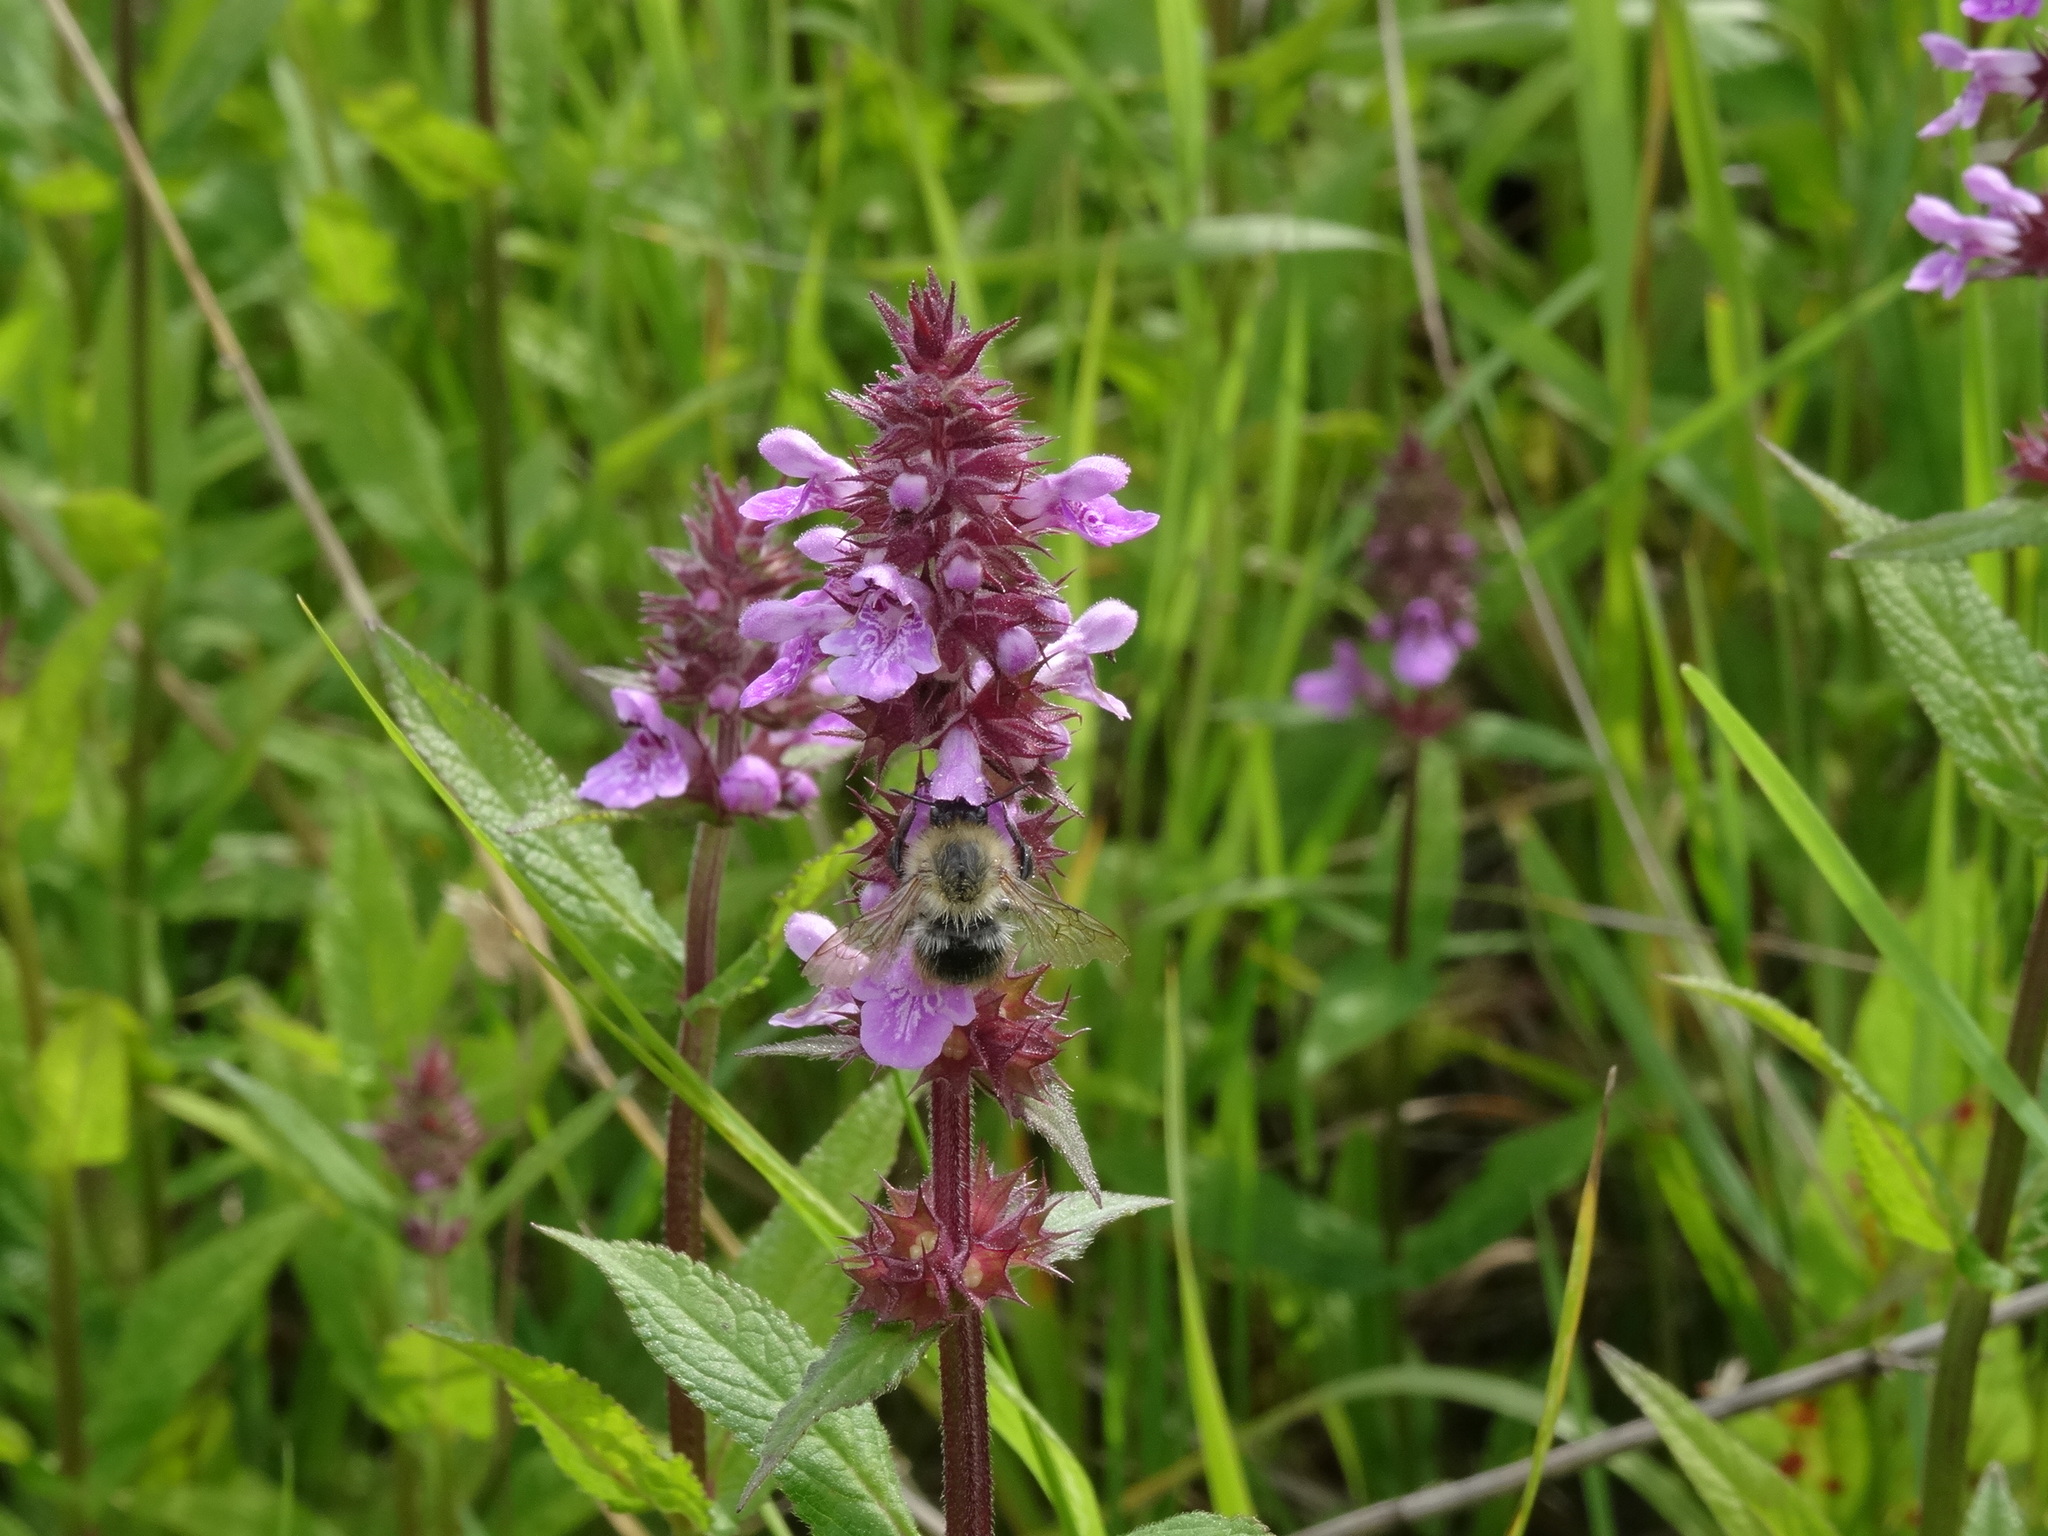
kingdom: Plantae
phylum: Tracheophyta
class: Magnoliopsida
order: Lamiales
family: Lamiaceae
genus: Stachys
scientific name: Stachys palustris
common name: Marsh woundwort
